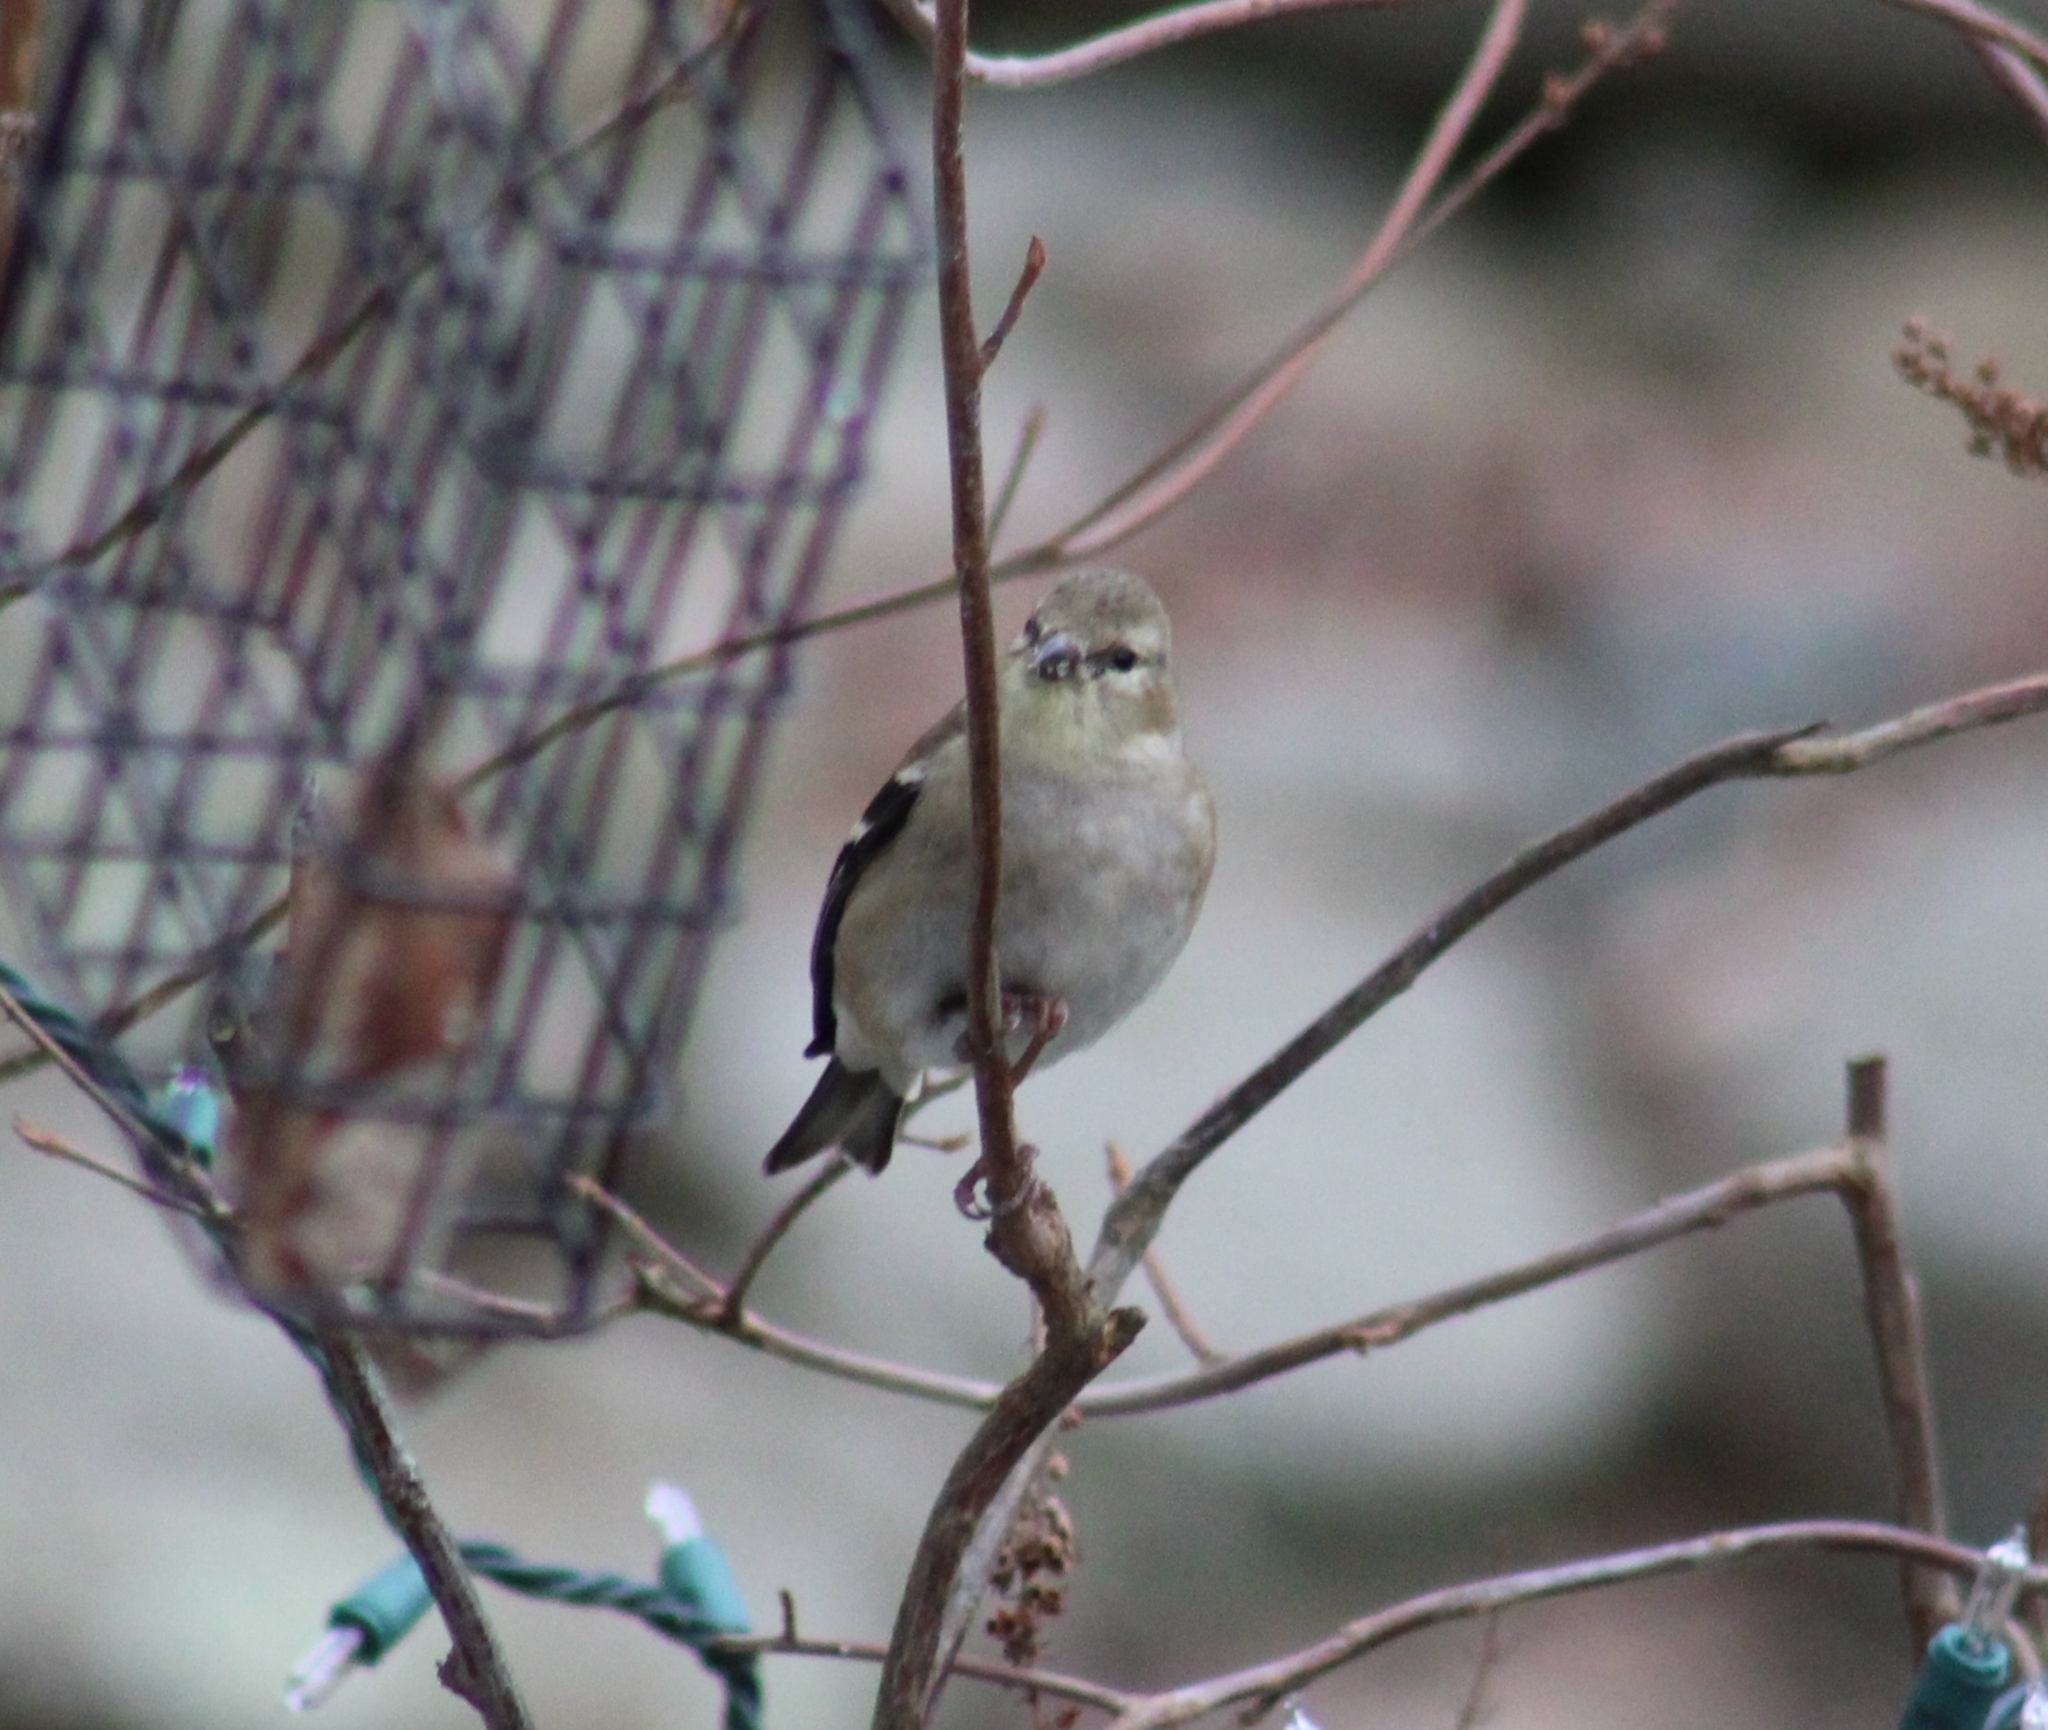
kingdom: Animalia
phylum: Chordata
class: Aves
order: Passeriformes
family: Fringillidae
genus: Spinus
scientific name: Spinus tristis
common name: American goldfinch
